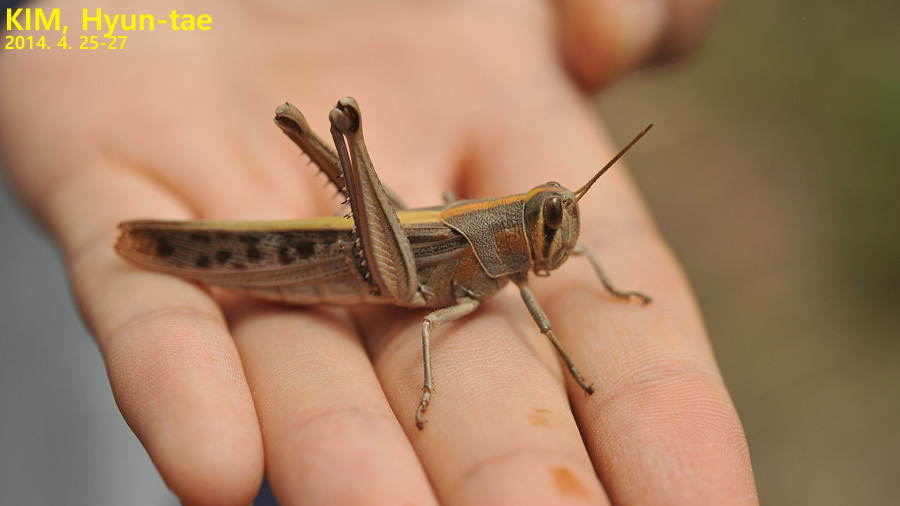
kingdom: Animalia
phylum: Arthropoda
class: Insecta
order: Orthoptera
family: Acrididae
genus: Patanga
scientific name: Patanga japonica
